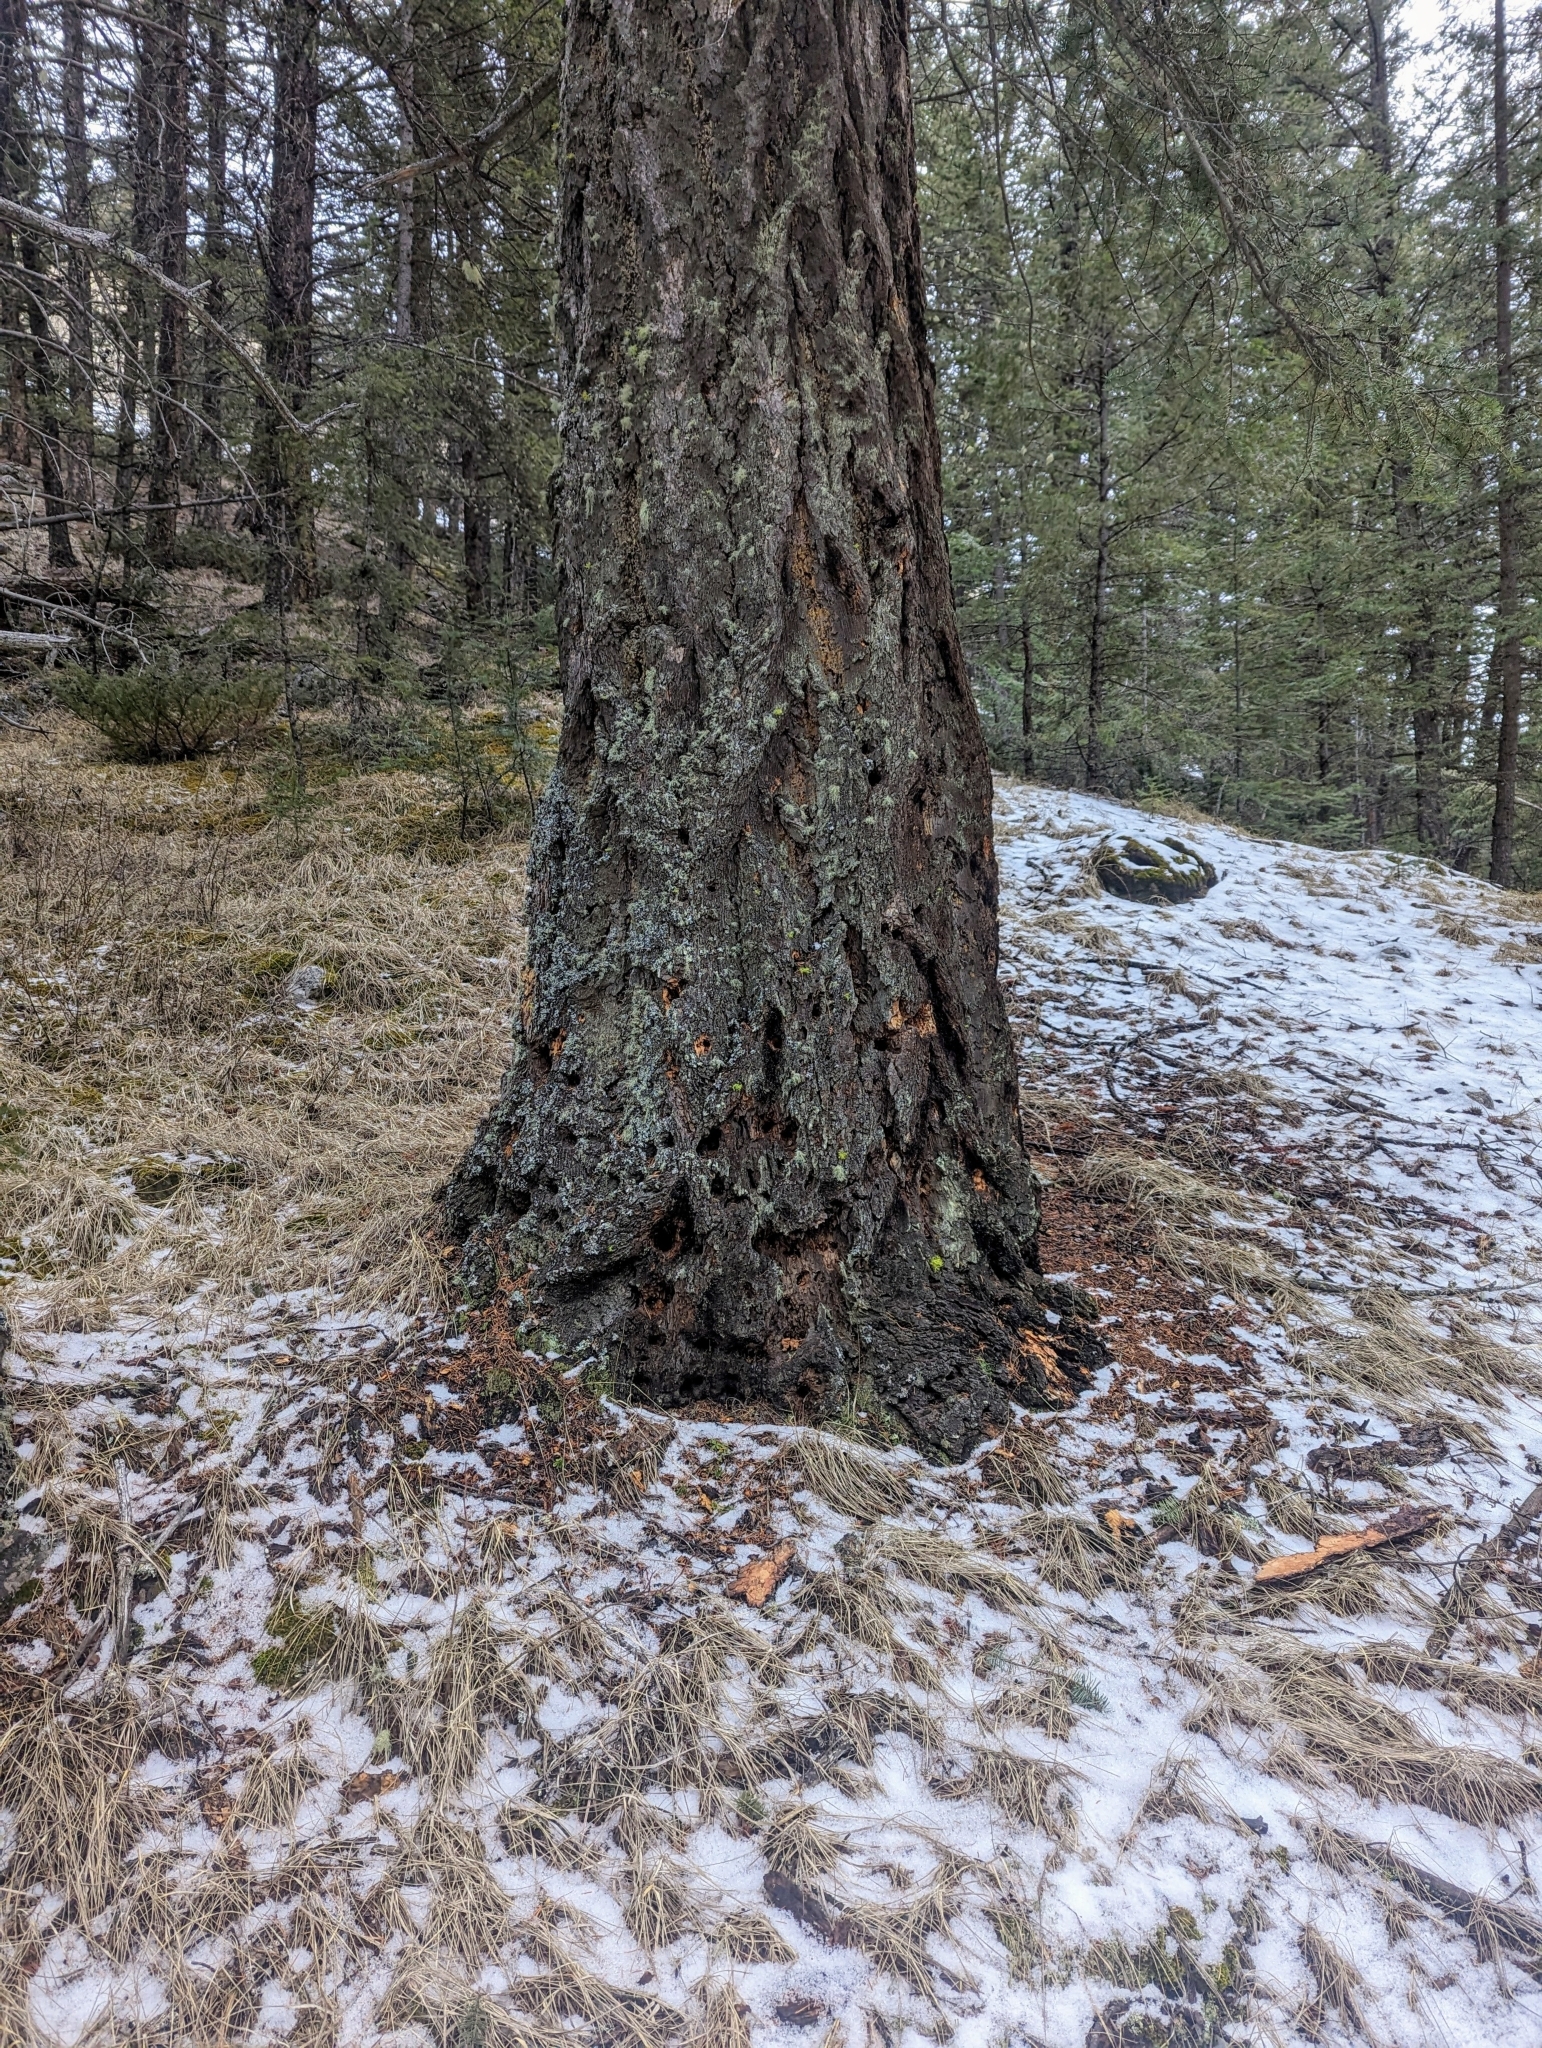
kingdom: Plantae
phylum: Tracheophyta
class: Pinopsida
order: Pinales
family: Pinaceae
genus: Pseudotsuga
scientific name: Pseudotsuga menziesii
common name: Douglas fir
